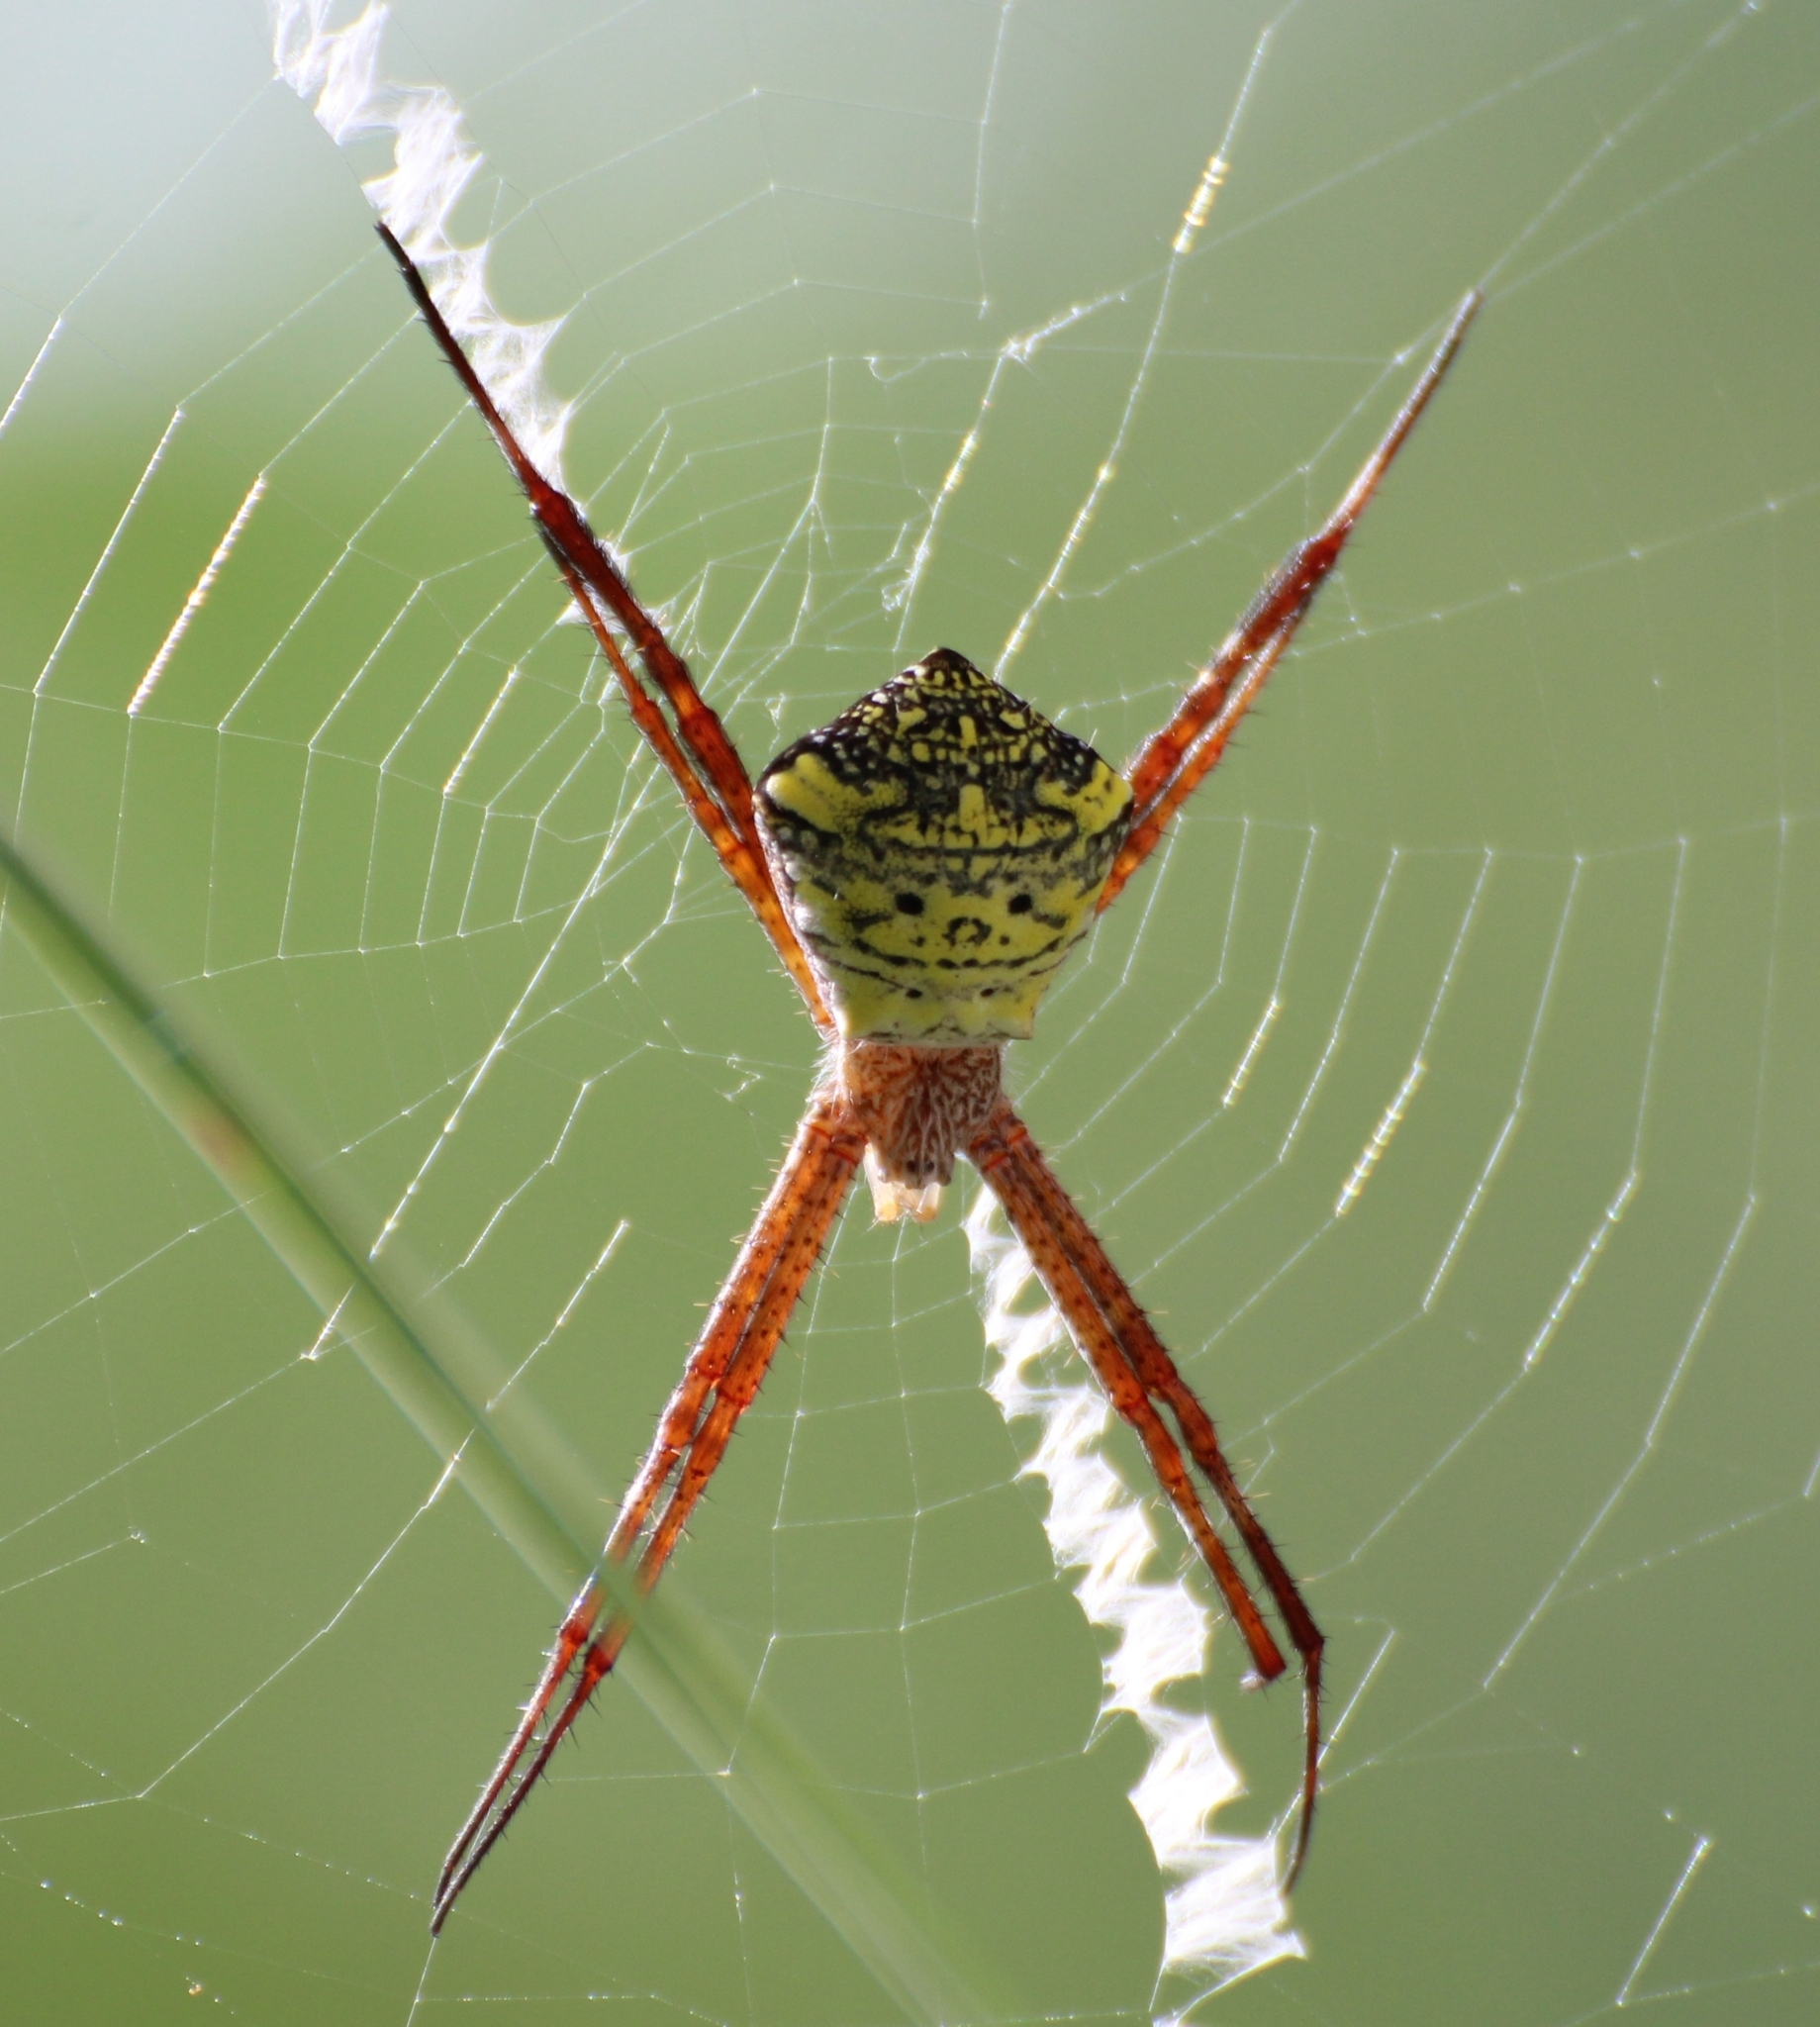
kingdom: Animalia
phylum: Arthropoda
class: Arachnida
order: Araneae
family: Araneidae
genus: Argiope
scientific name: Argiope appensa
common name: Garden spider
